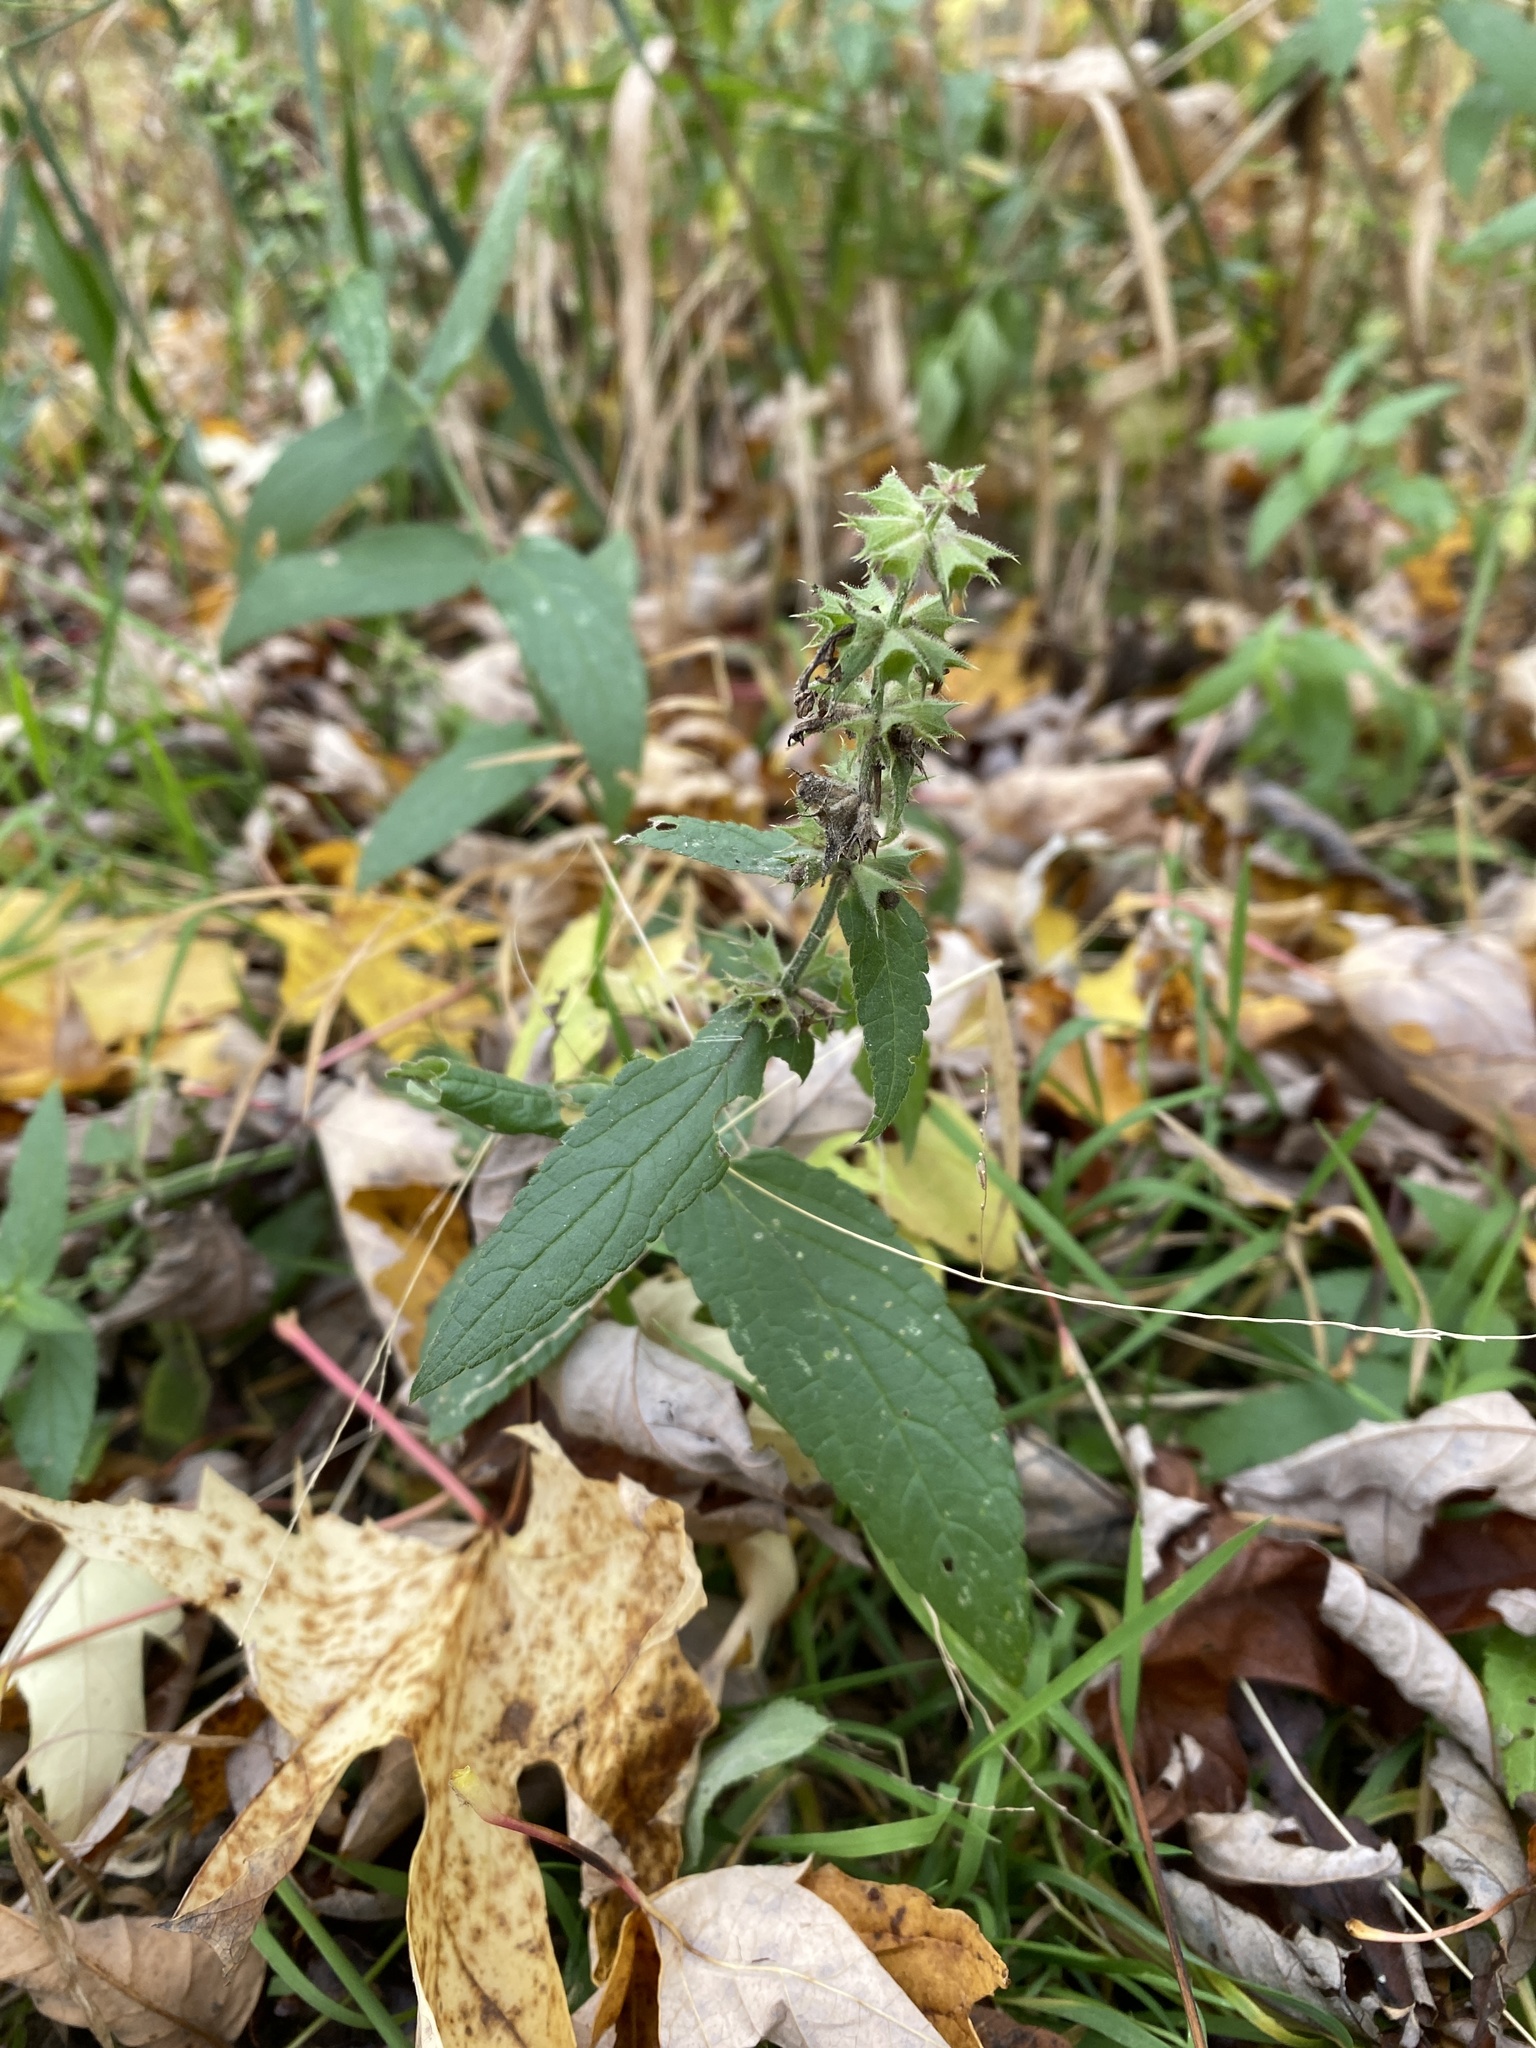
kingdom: Plantae
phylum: Tracheophyta
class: Magnoliopsida
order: Lamiales
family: Lamiaceae
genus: Stachys
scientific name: Stachys palustris
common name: Marsh woundwort
